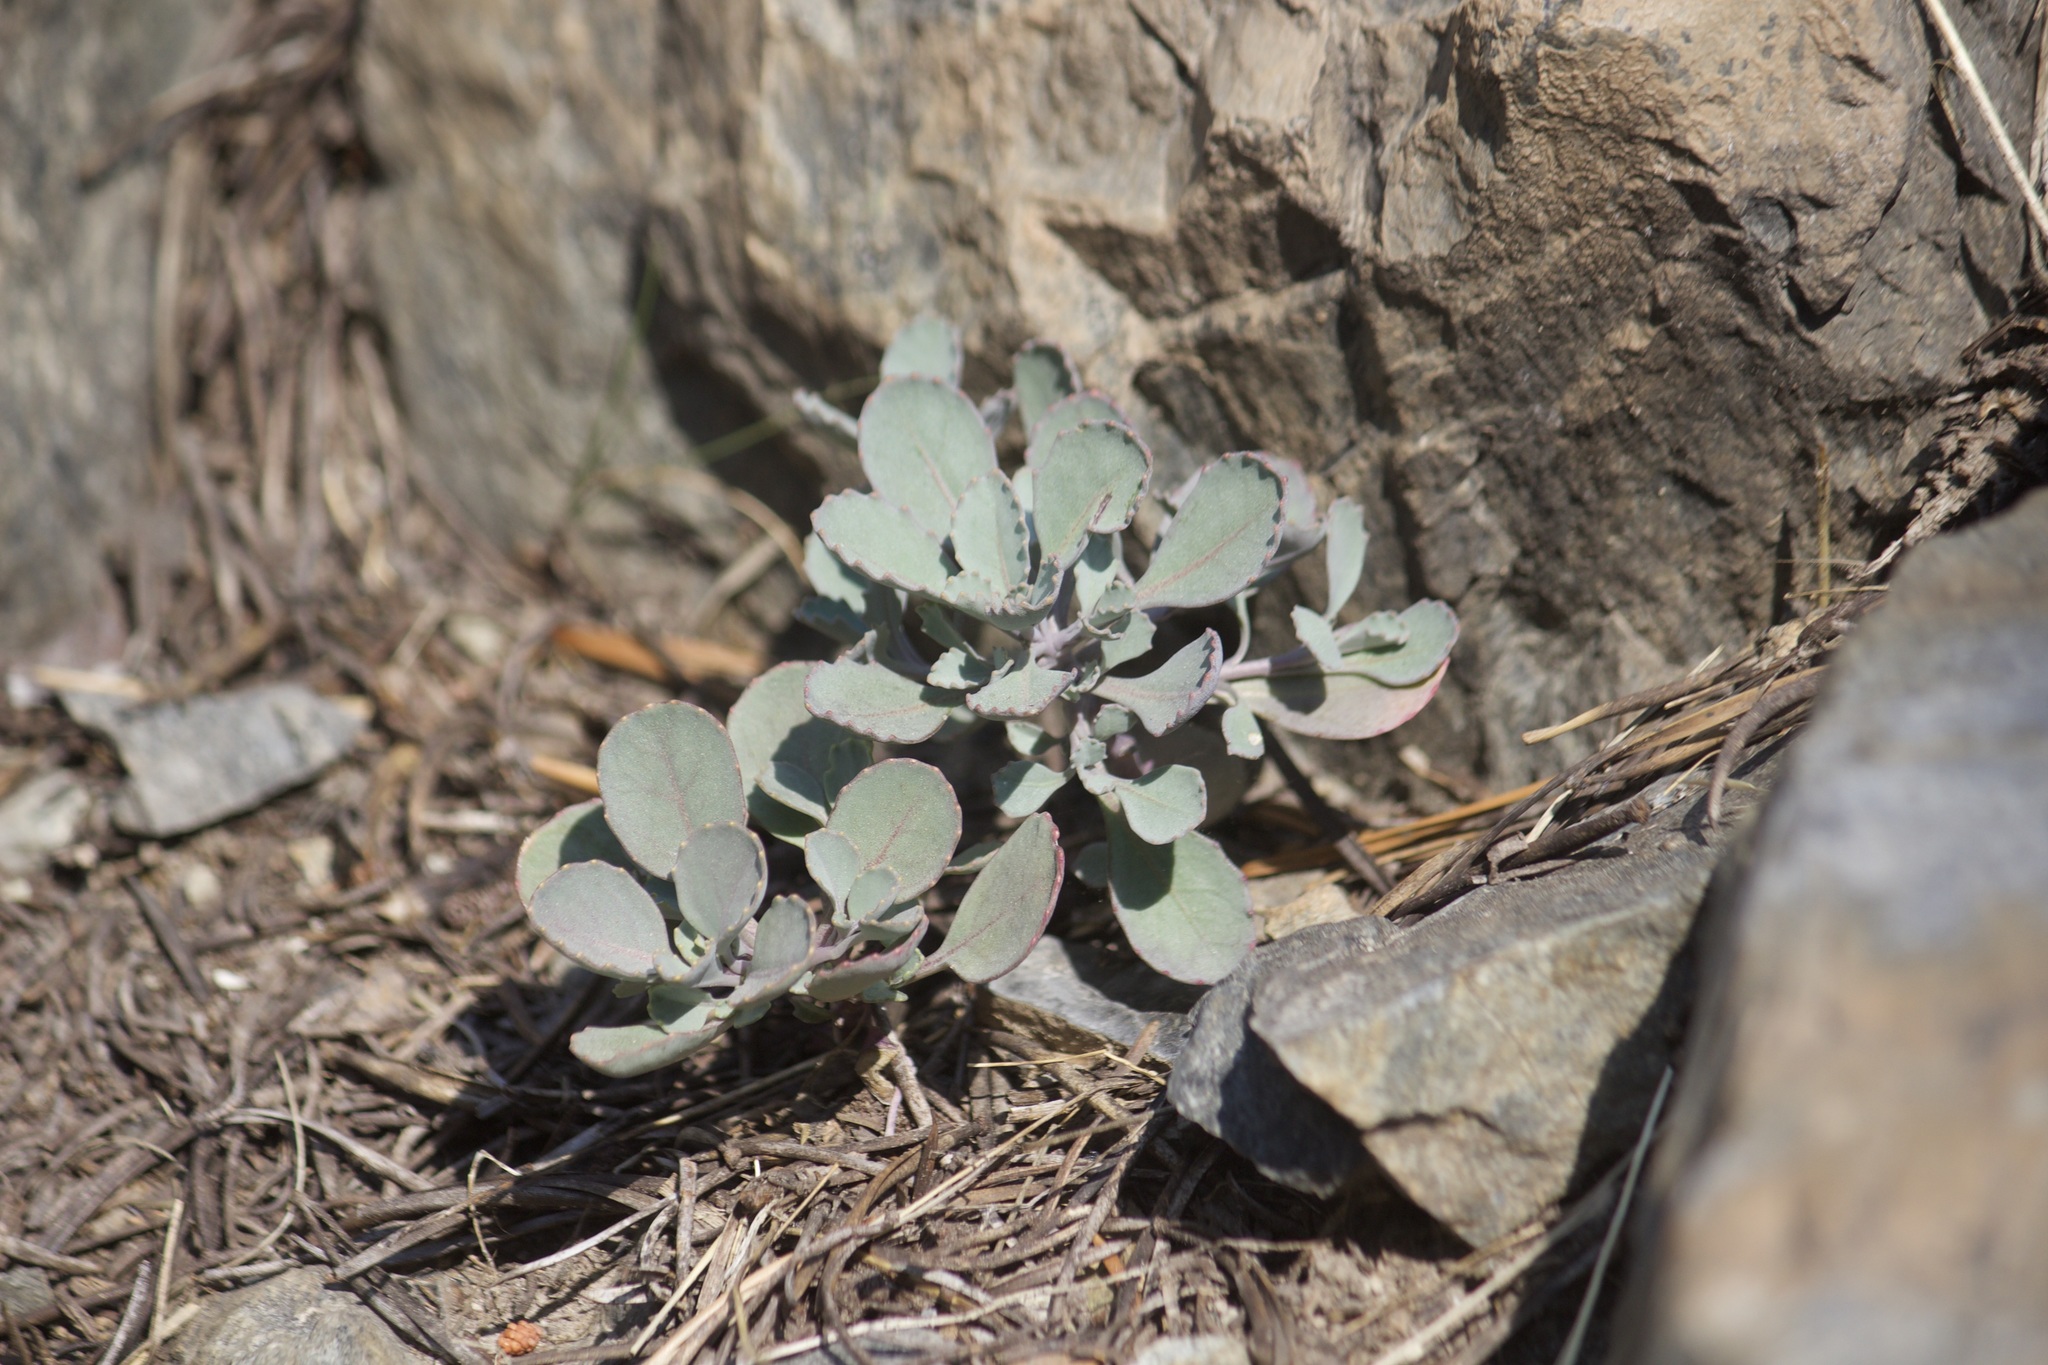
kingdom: Plantae
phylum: Tracheophyta
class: Magnoliopsida
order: Brassicales
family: Brassicaceae
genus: Streptanthus
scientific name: Streptanthus tortuosus
